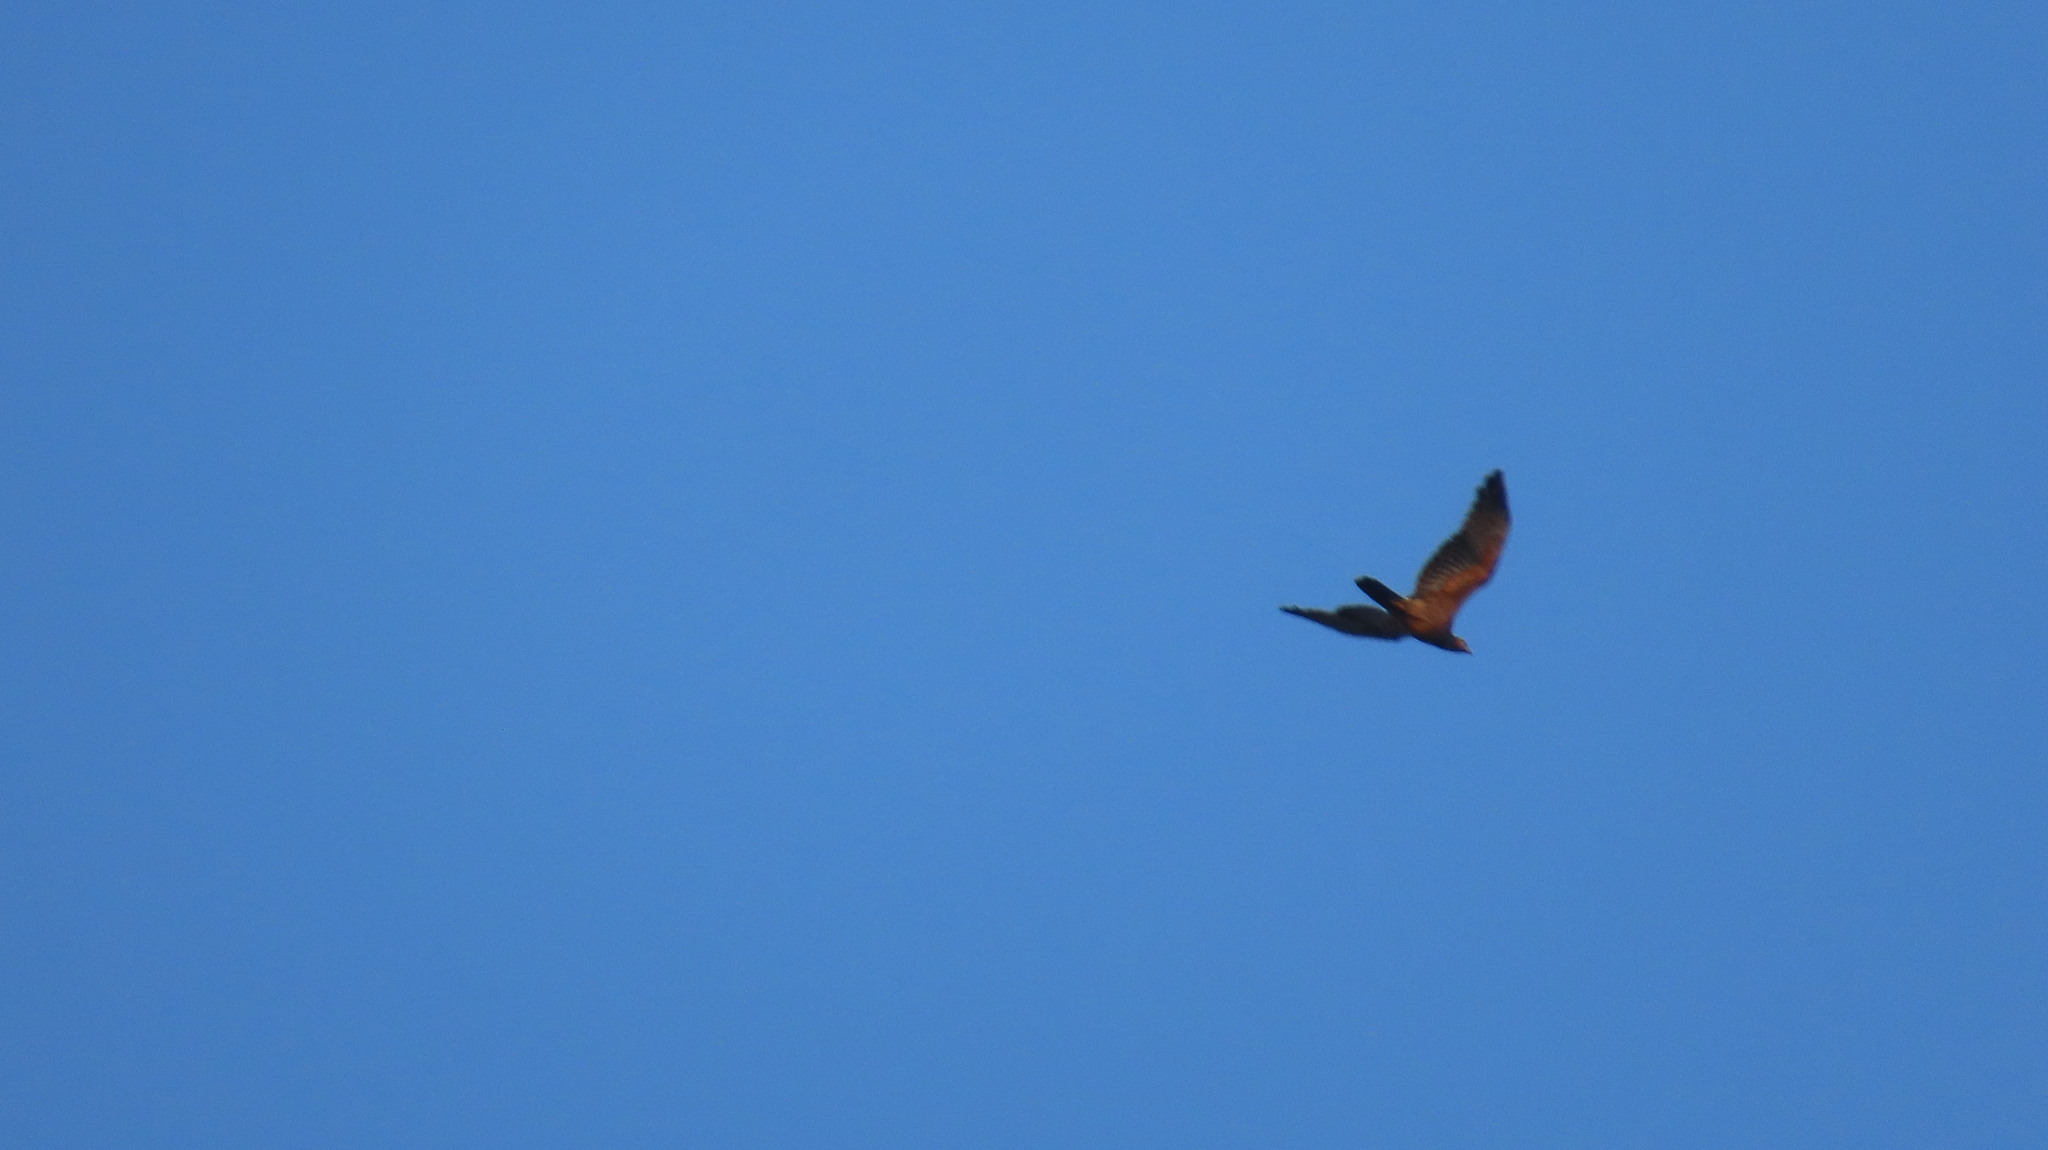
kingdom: Animalia
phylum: Chordata
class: Aves
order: Accipitriformes
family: Accipitridae
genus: Pernis
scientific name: Pernis ptilorhynchus
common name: Crested honey buzzard
